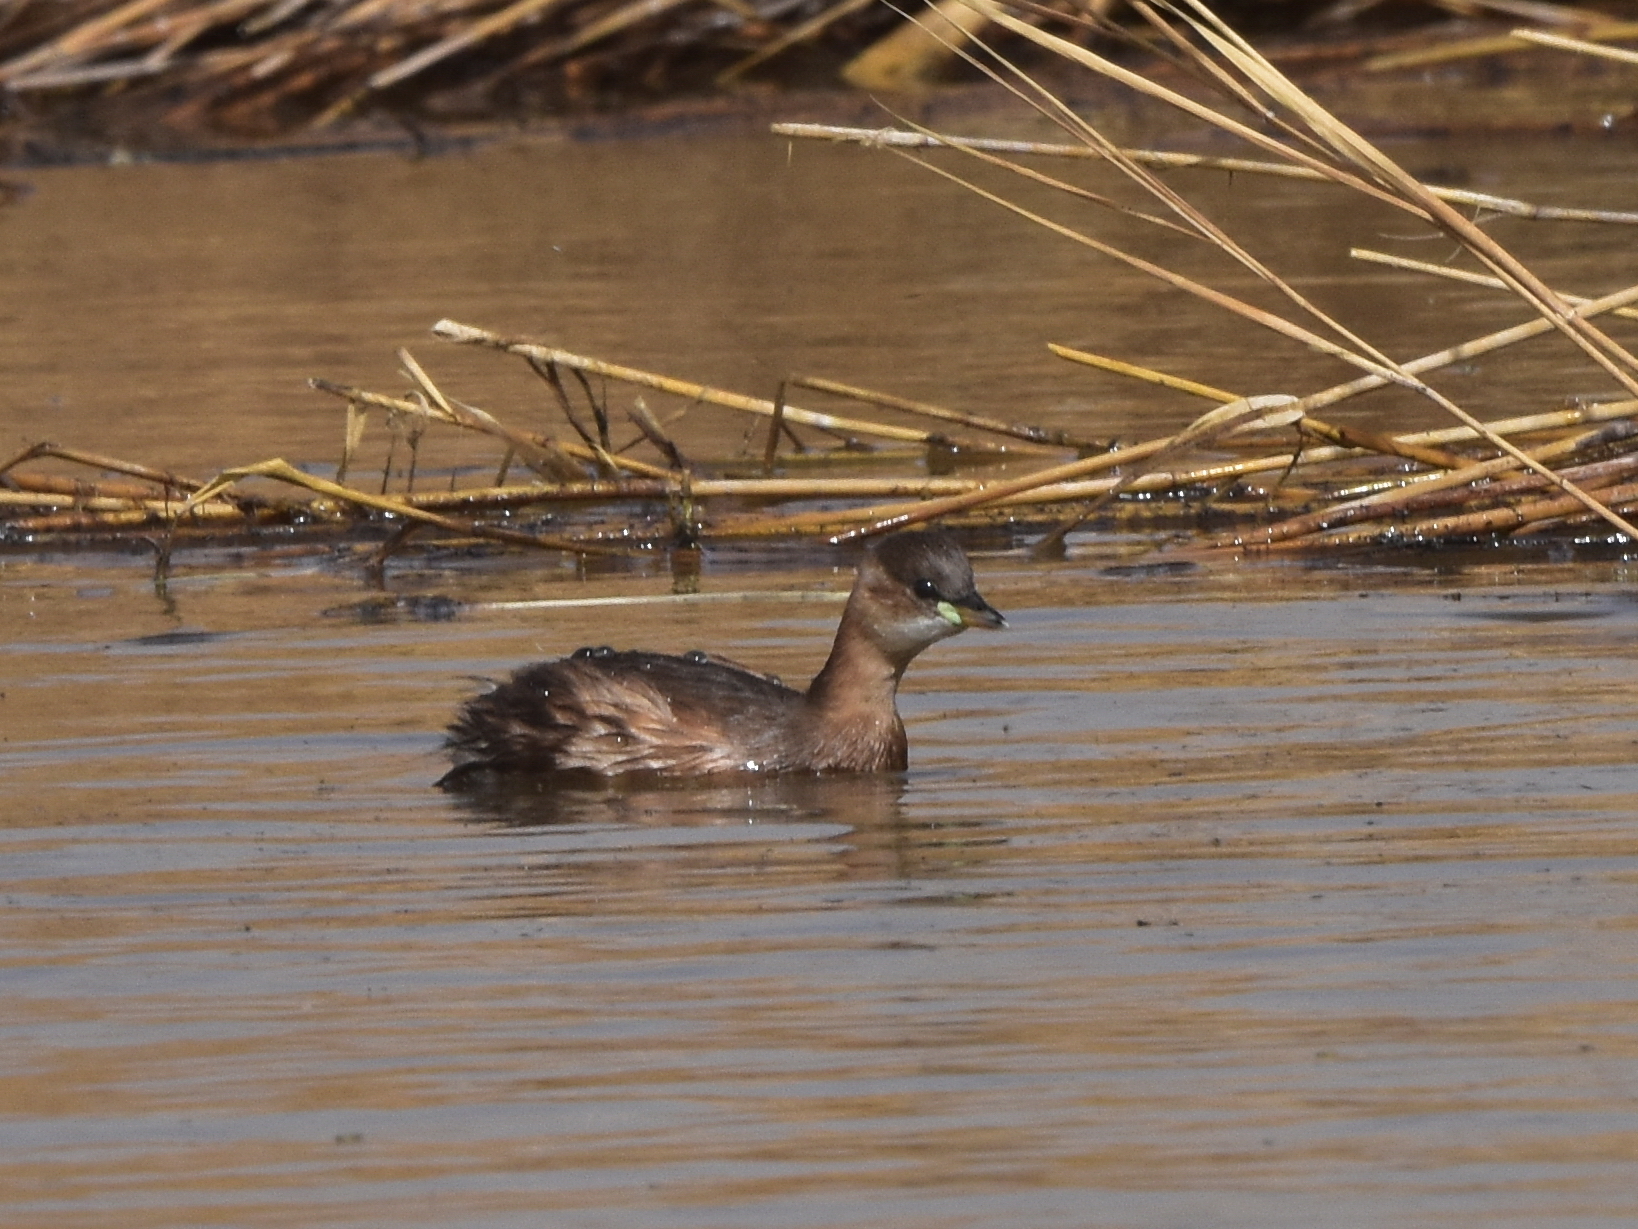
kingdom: Animalia
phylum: Chordata
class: Aves
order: Podicipediformes
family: Podicipedidae
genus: Tachybaptus
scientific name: Tachybaptus ruficollis
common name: Little grebe
